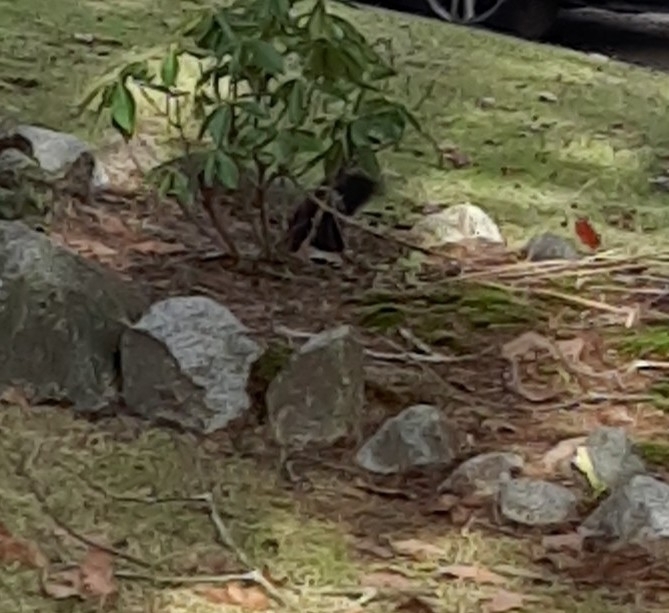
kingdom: Animalia
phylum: Chordata
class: Mammalia
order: Rodentia
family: Sciuridae
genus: Sciurus
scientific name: Sciurus carolinensis
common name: Eastern gray squirrel
